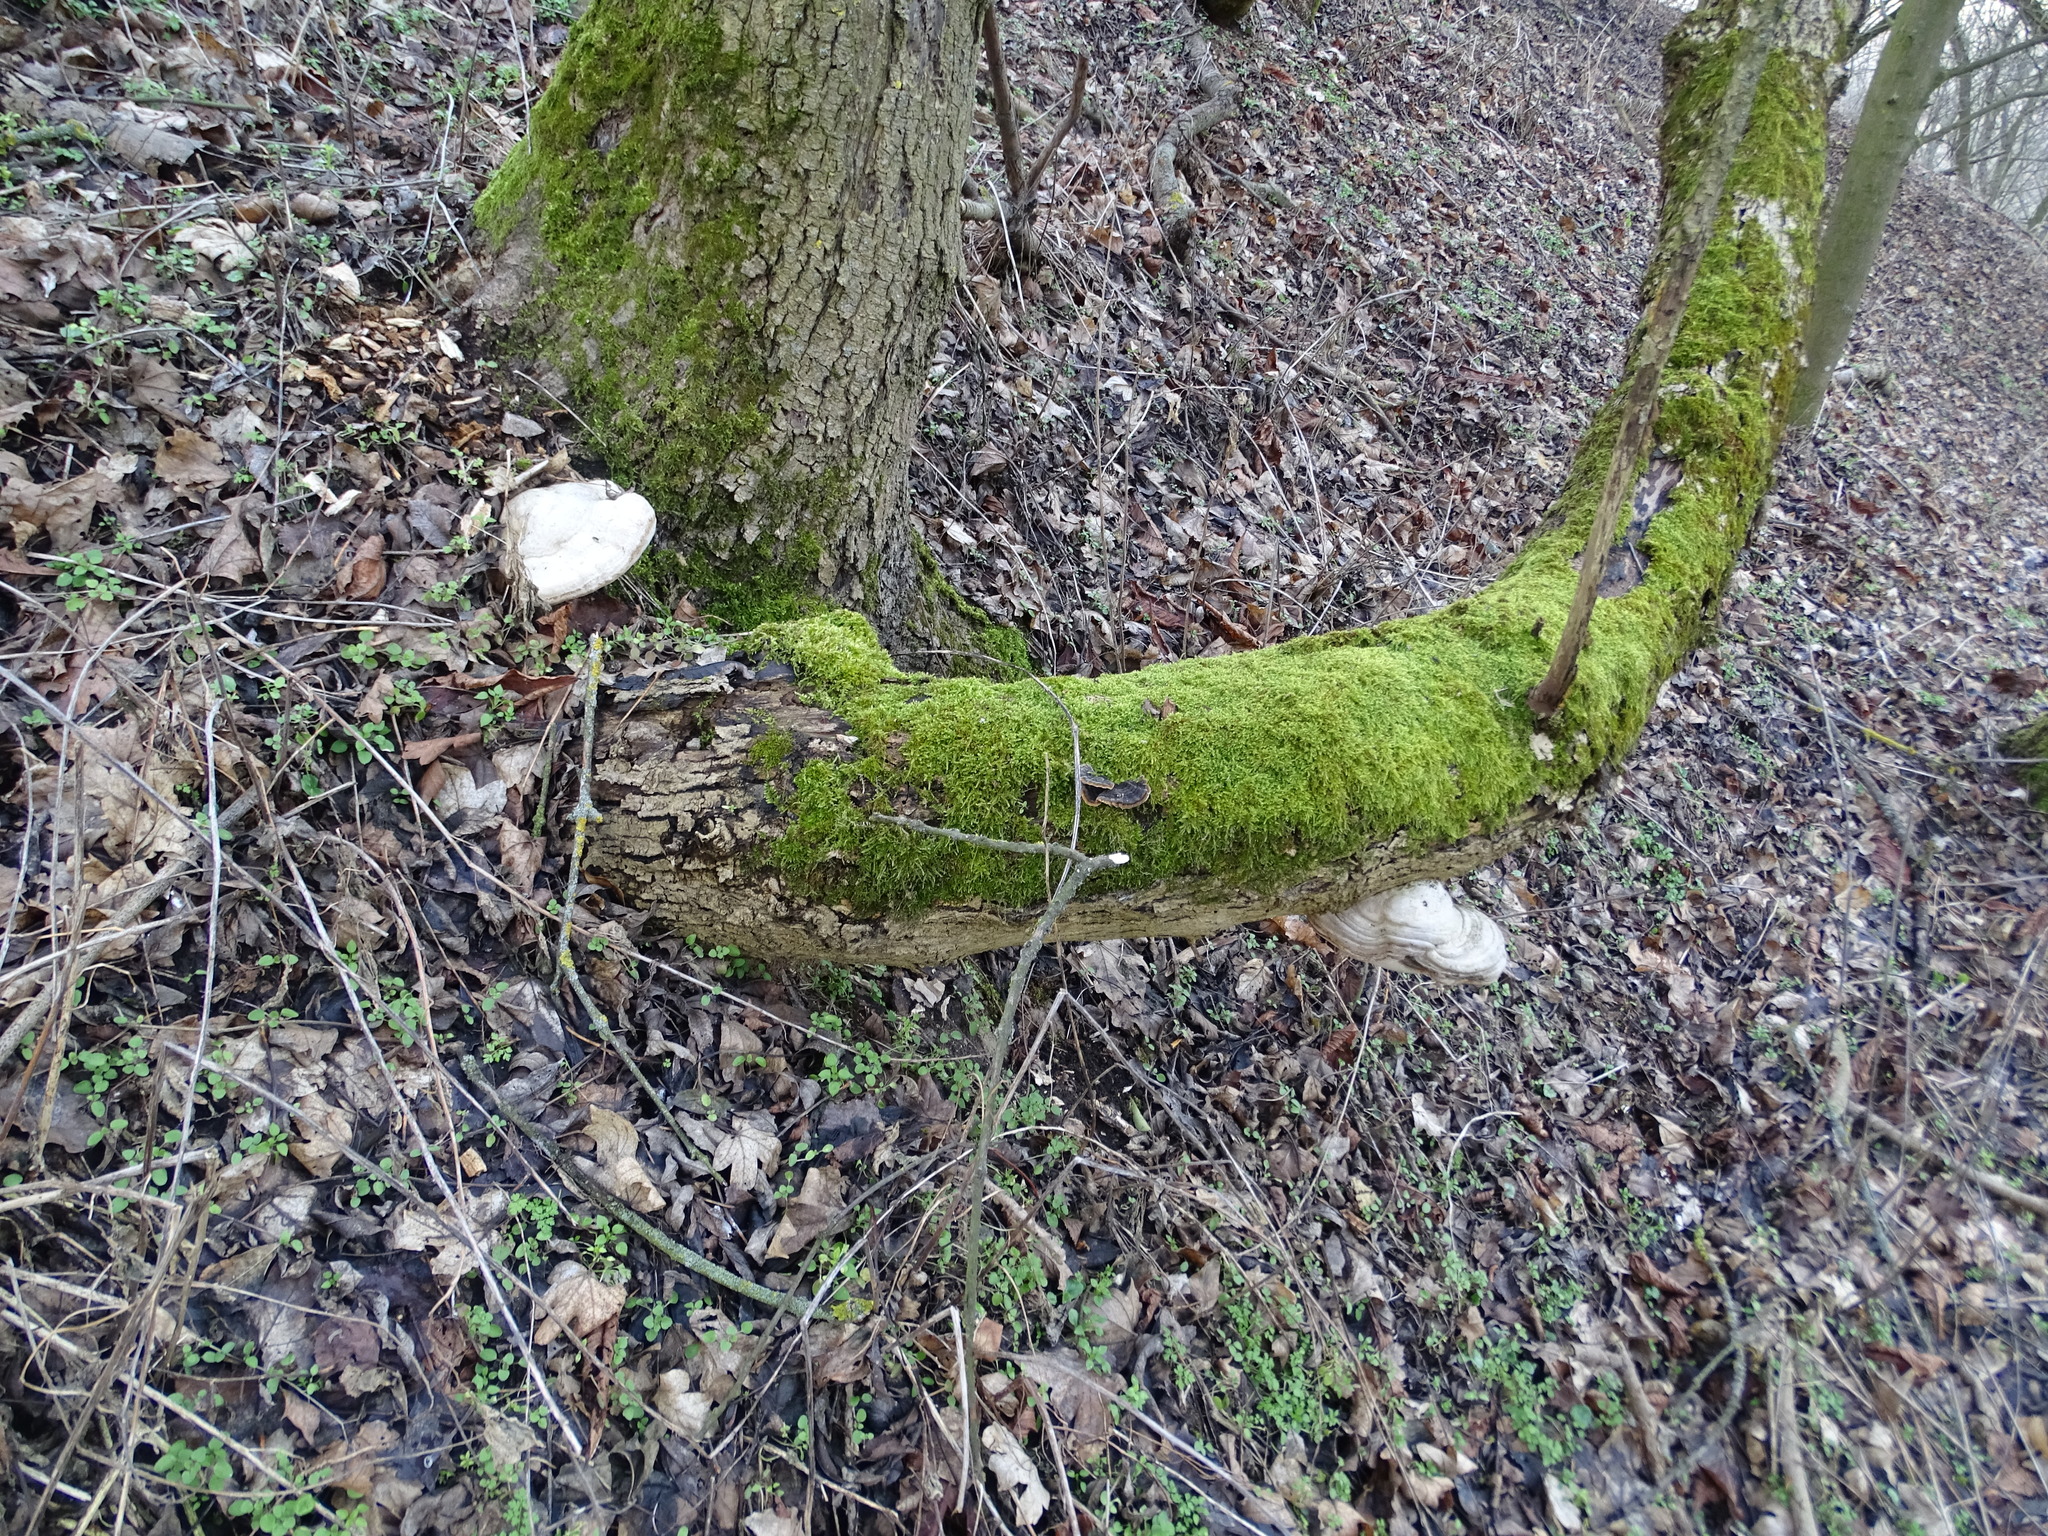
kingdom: Fungi
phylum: Basidiomycota
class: Agaricomycetes
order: Polyporales
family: Polyporaceae
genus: Fomes
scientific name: Fomes fomentarius
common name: Hoof fungus
